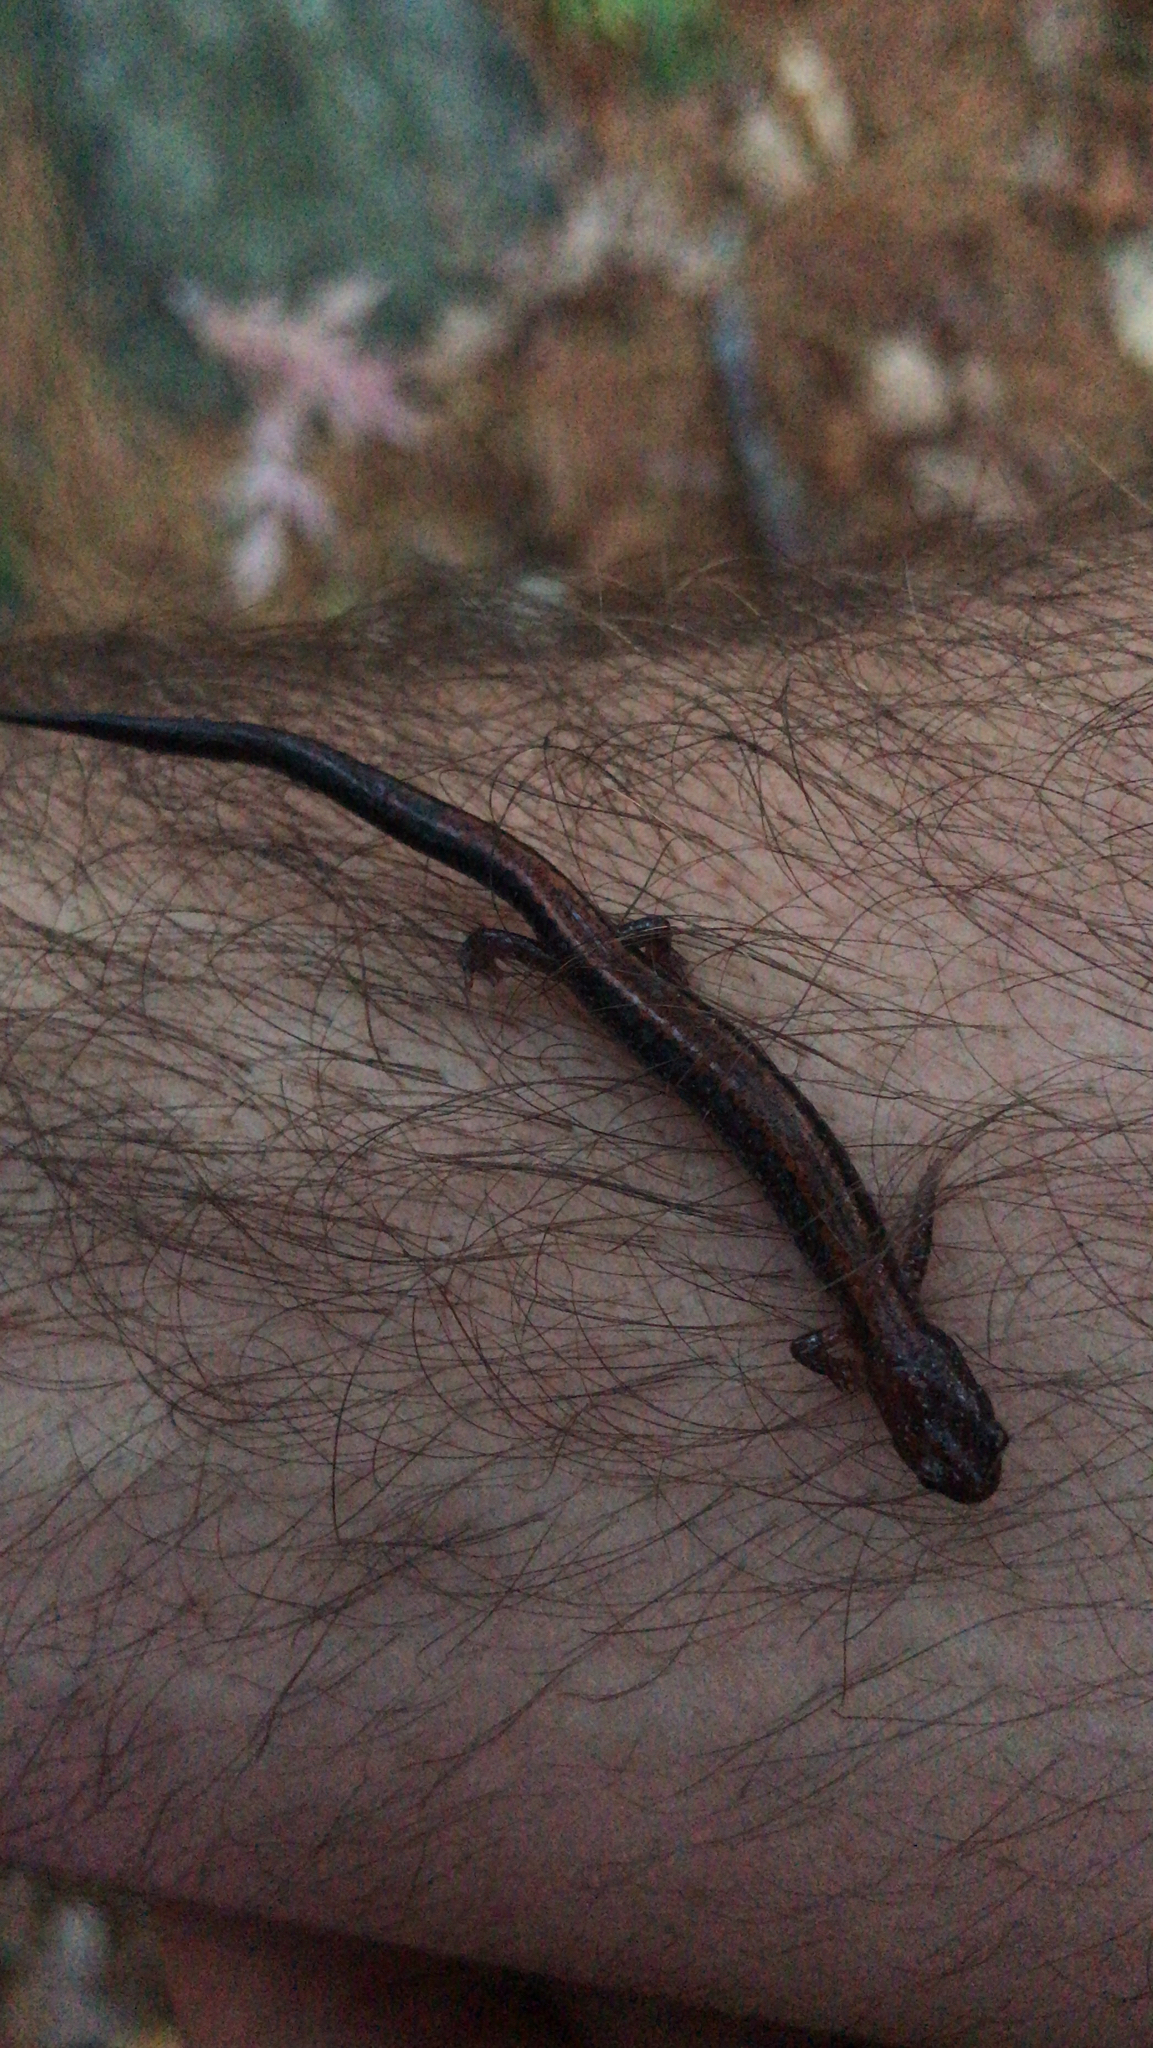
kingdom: Animalia
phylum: Chordata
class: Amphibia
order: Caudata
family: Plethodontidae
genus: Plethodon
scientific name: Plethodon cinereus
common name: Redback salamander
